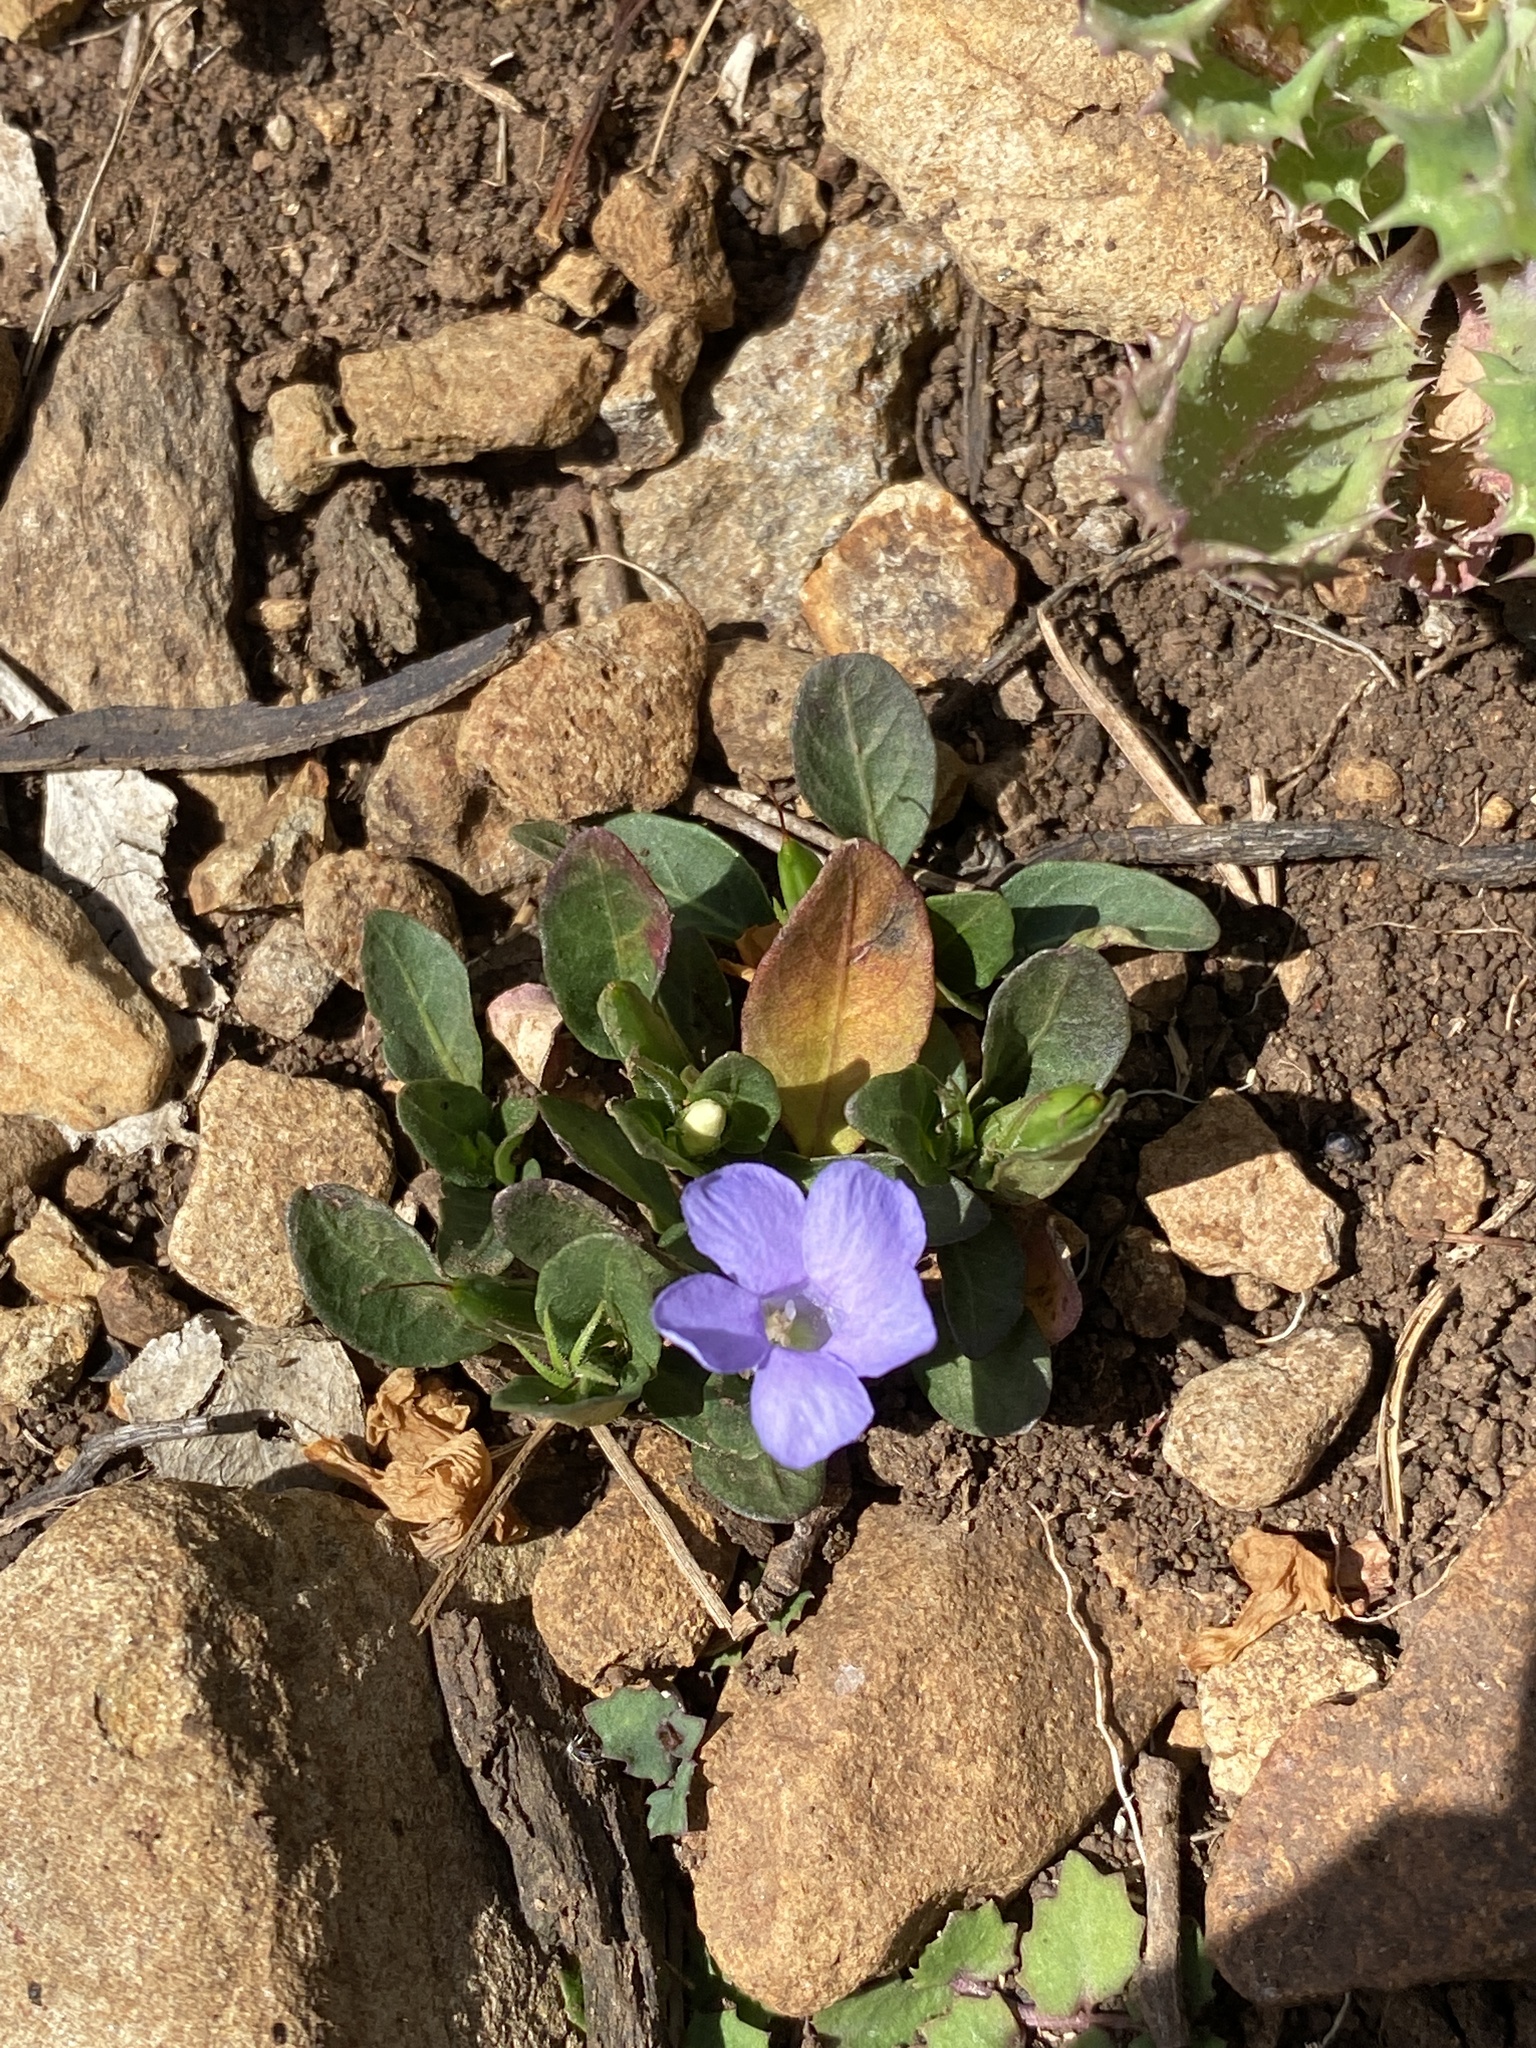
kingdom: Plantae
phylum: Tracheophyta
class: Magnoliopsida
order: Lamiales
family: Acanthaceae
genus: Brunoniella
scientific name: Brunoniella australis
